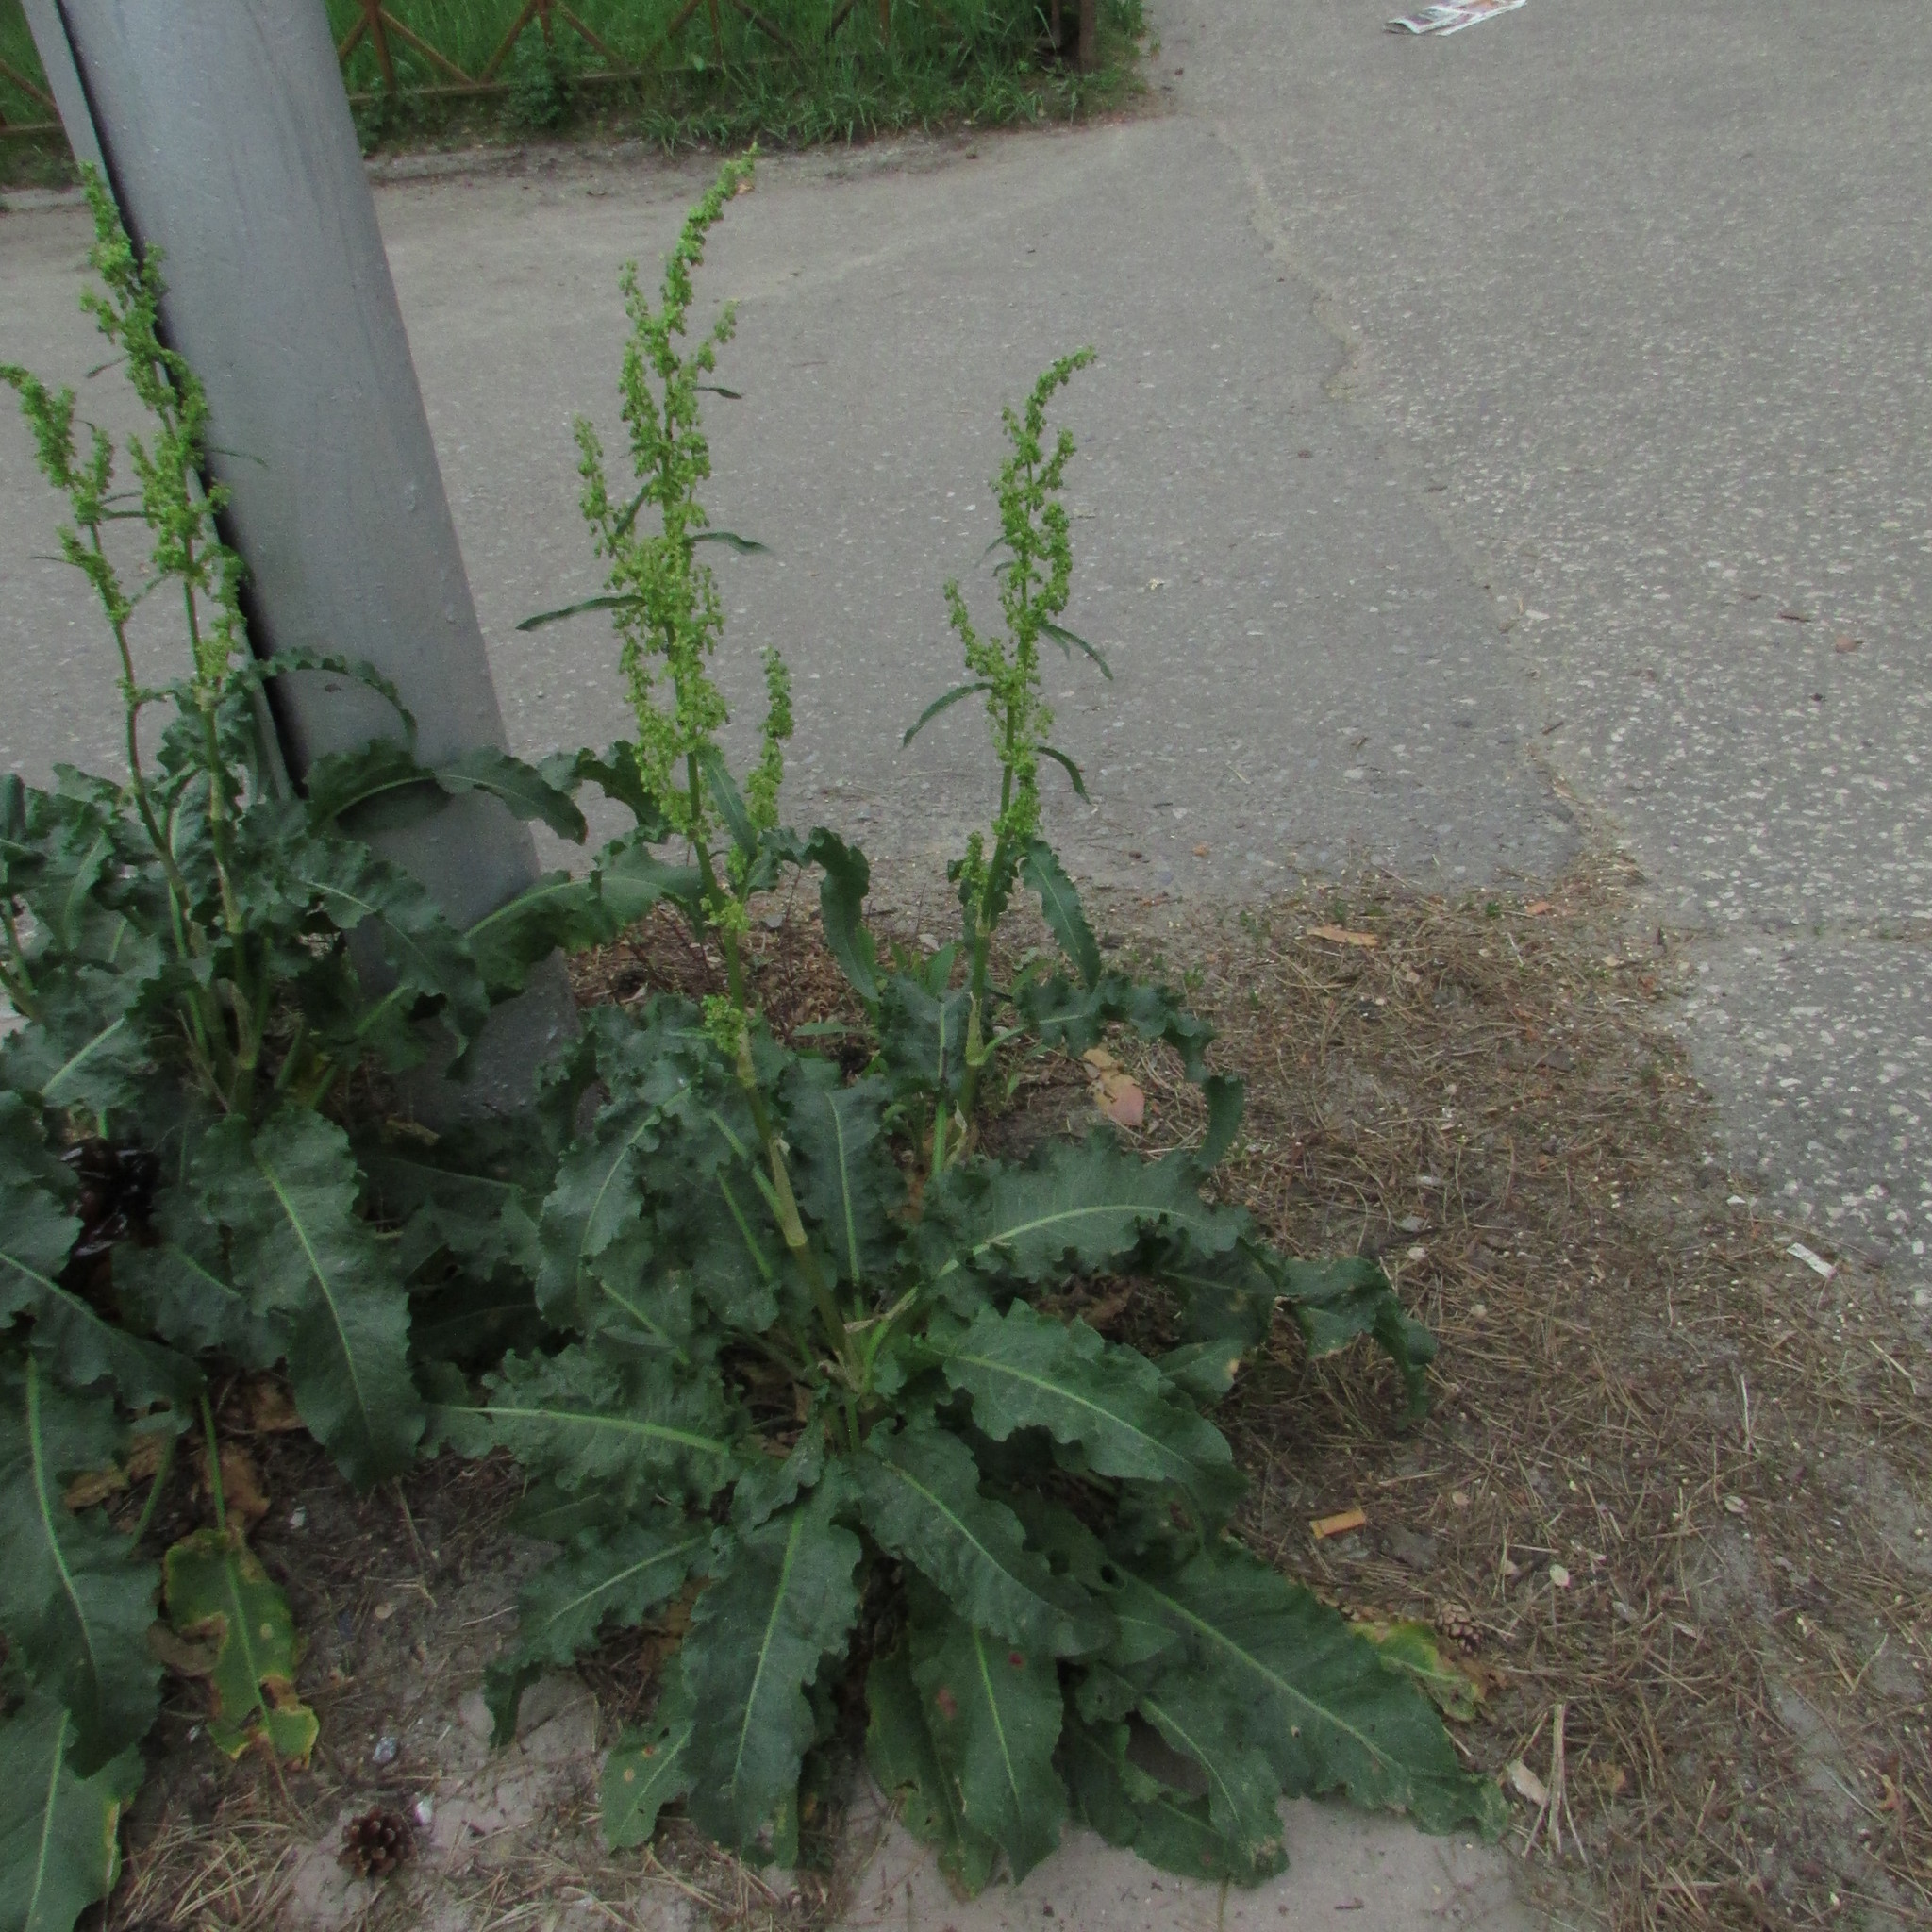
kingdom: Plantae
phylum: Tracheophyta
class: Magnoliopsida
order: Caryophyllales
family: Polygonaceae
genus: Rumex
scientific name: Rumex patientia
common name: Patience dock
